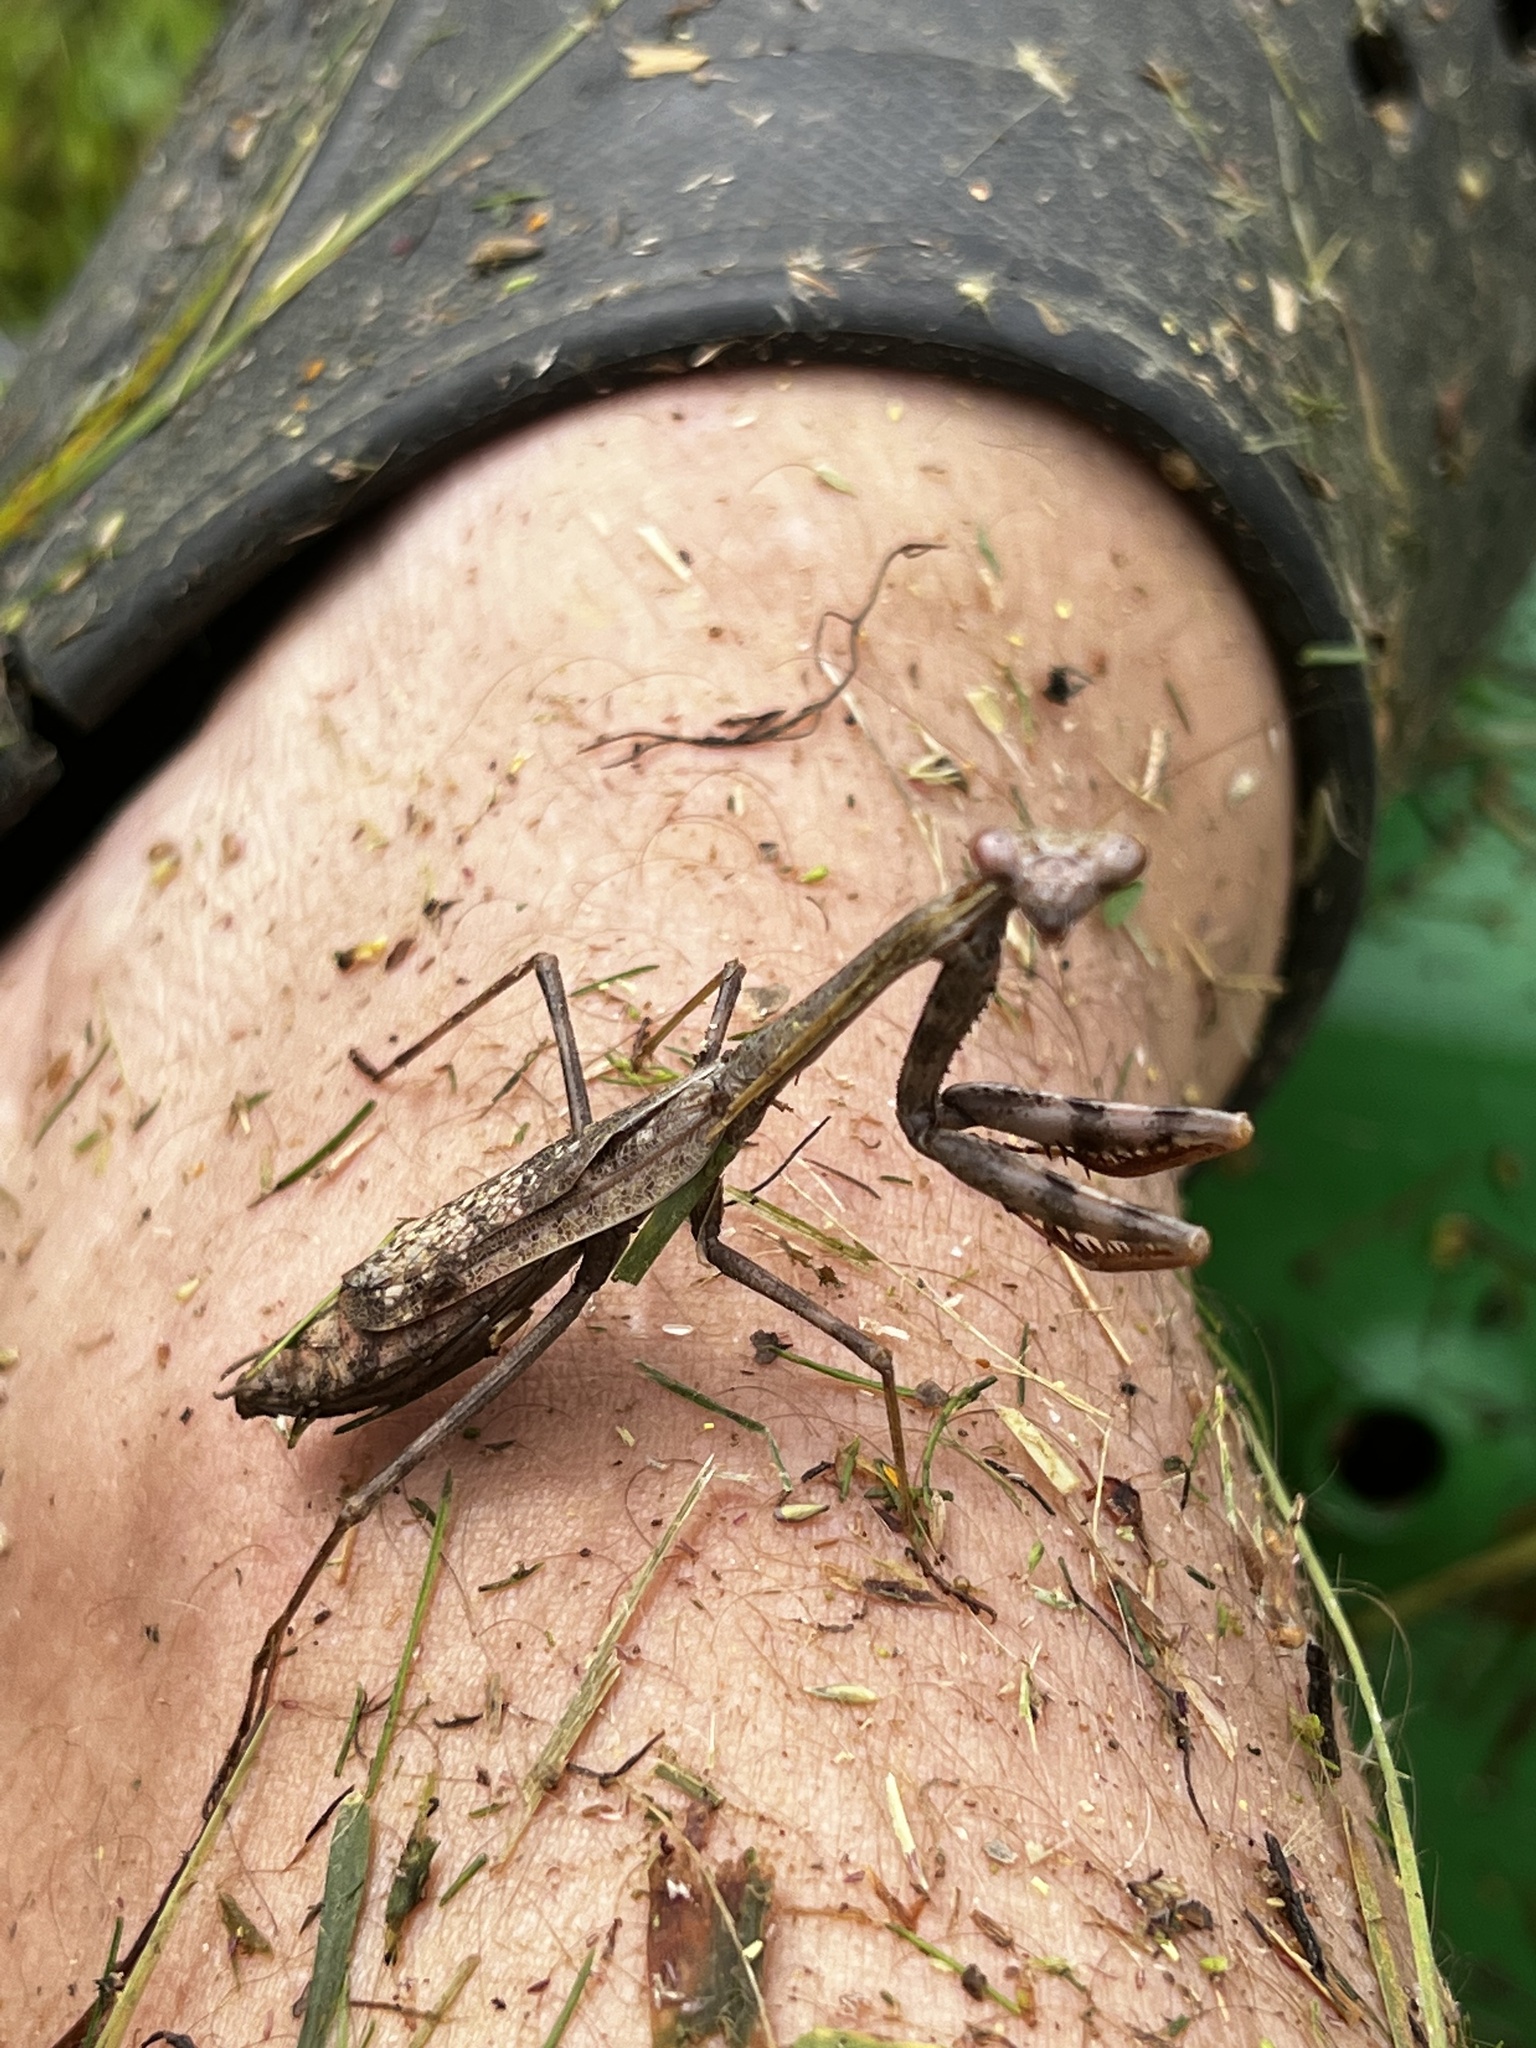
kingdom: Animalia
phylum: Arthropoda
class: Insecta
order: Mantodea
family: Mantidae
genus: Stagmomantis
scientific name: Stagmomantis carolina
